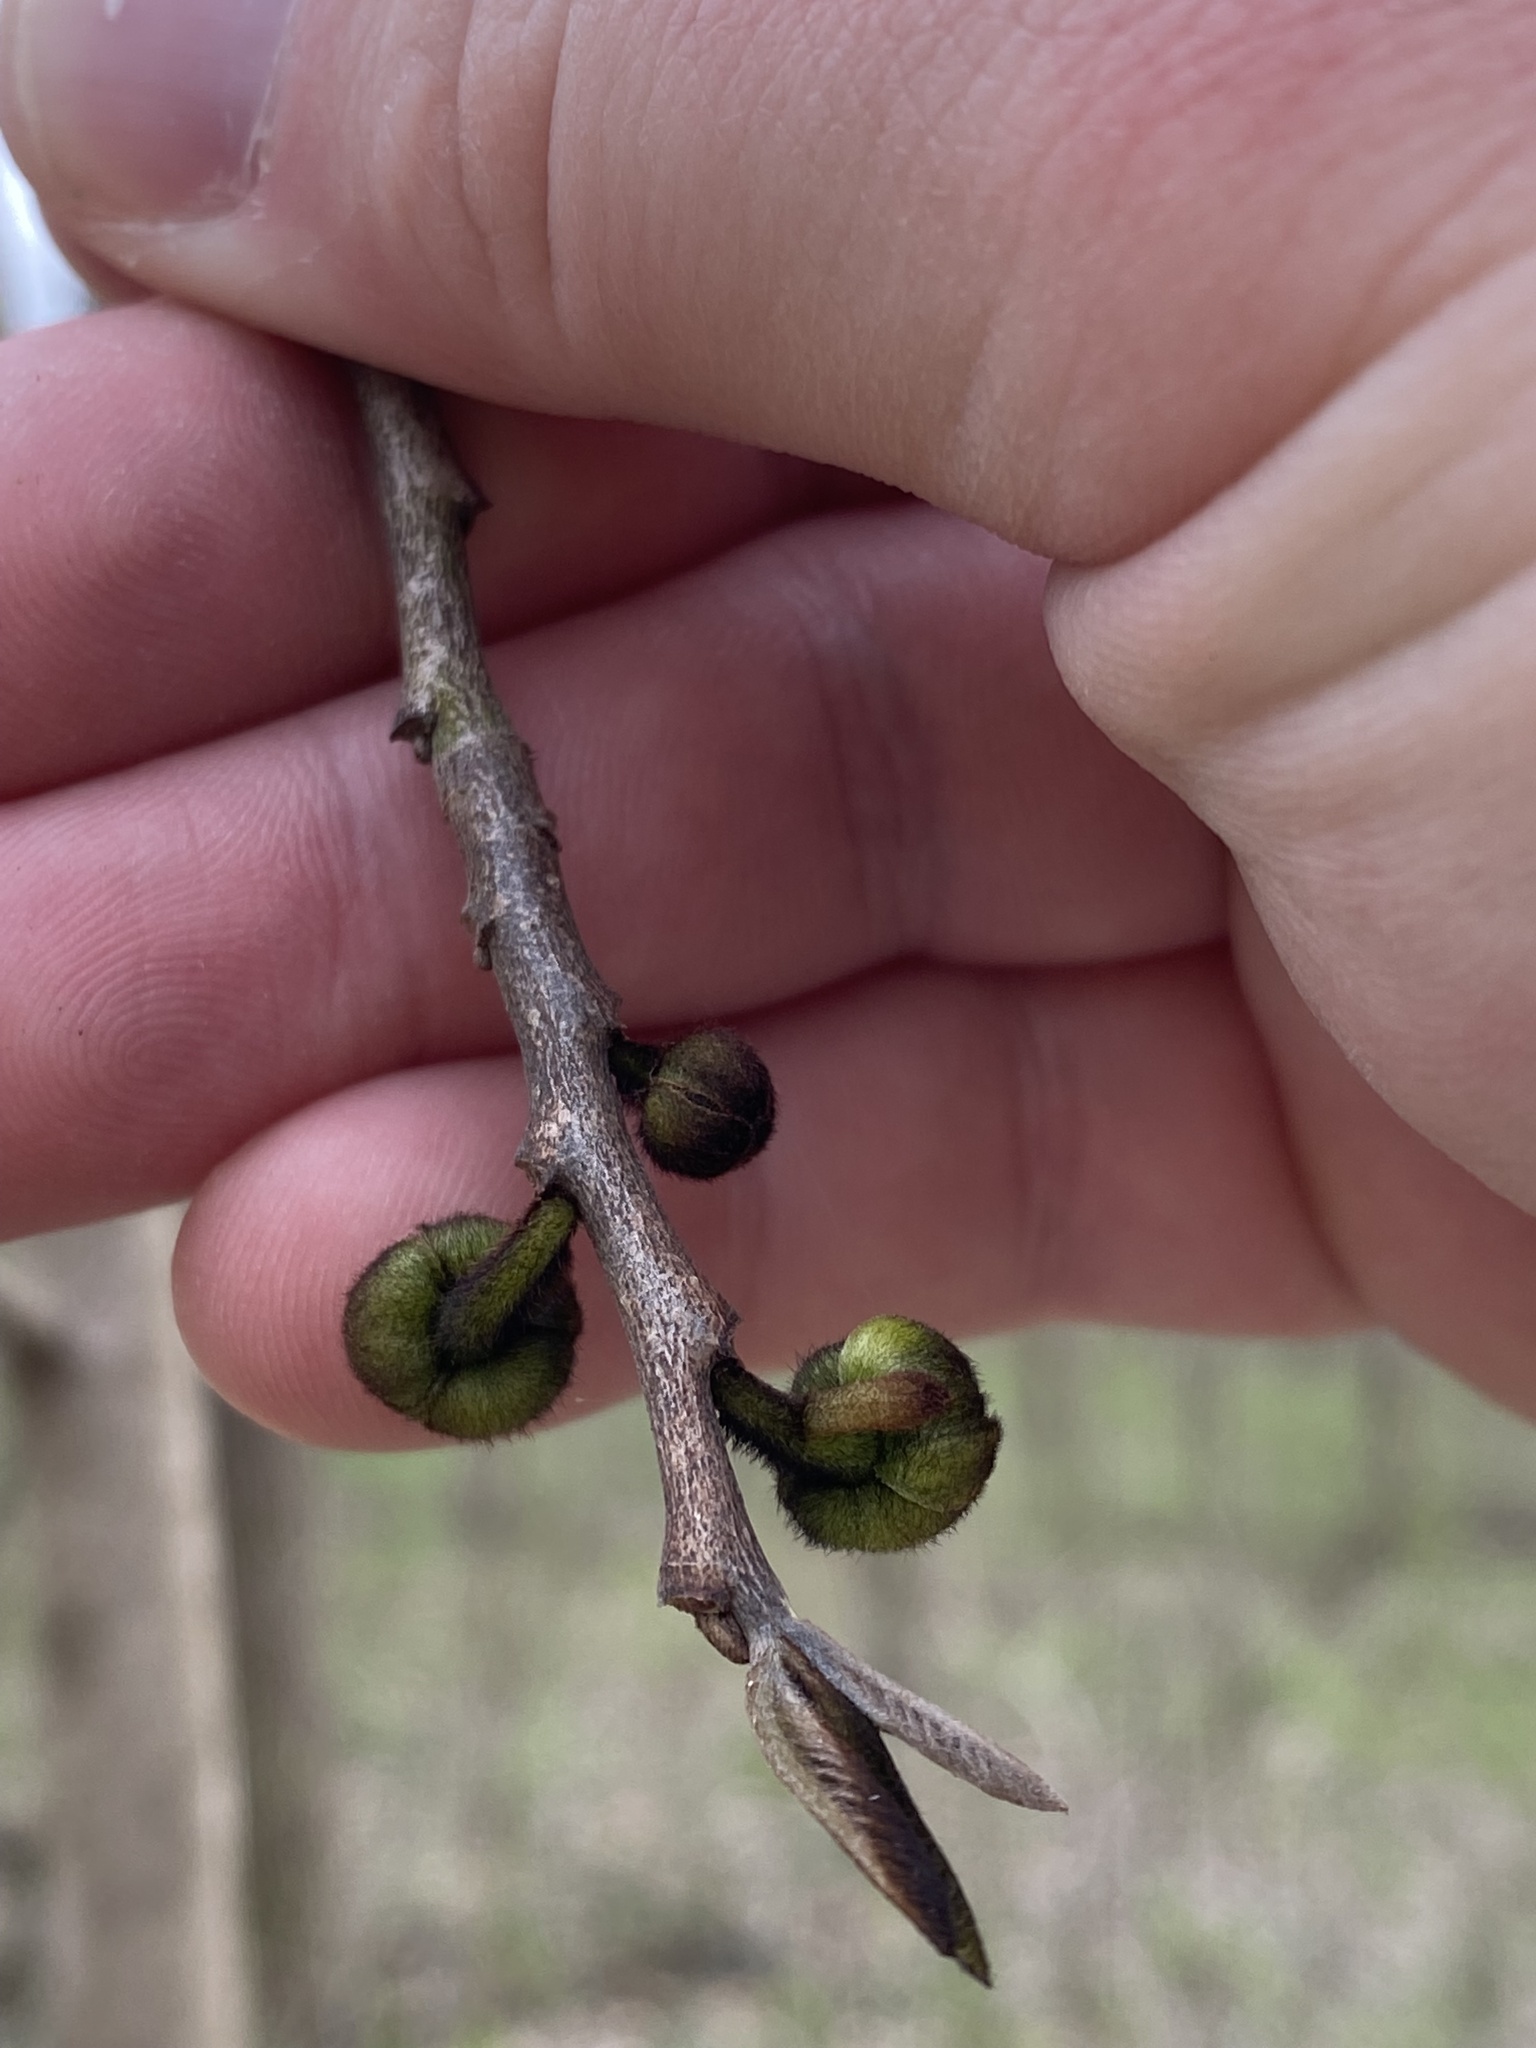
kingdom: Plantae
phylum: Tracheophyta
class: Magnoliopsida
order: Magnoliales
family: Annonaceae
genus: Asimina
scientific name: Asimina triloba
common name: Dog-banana
